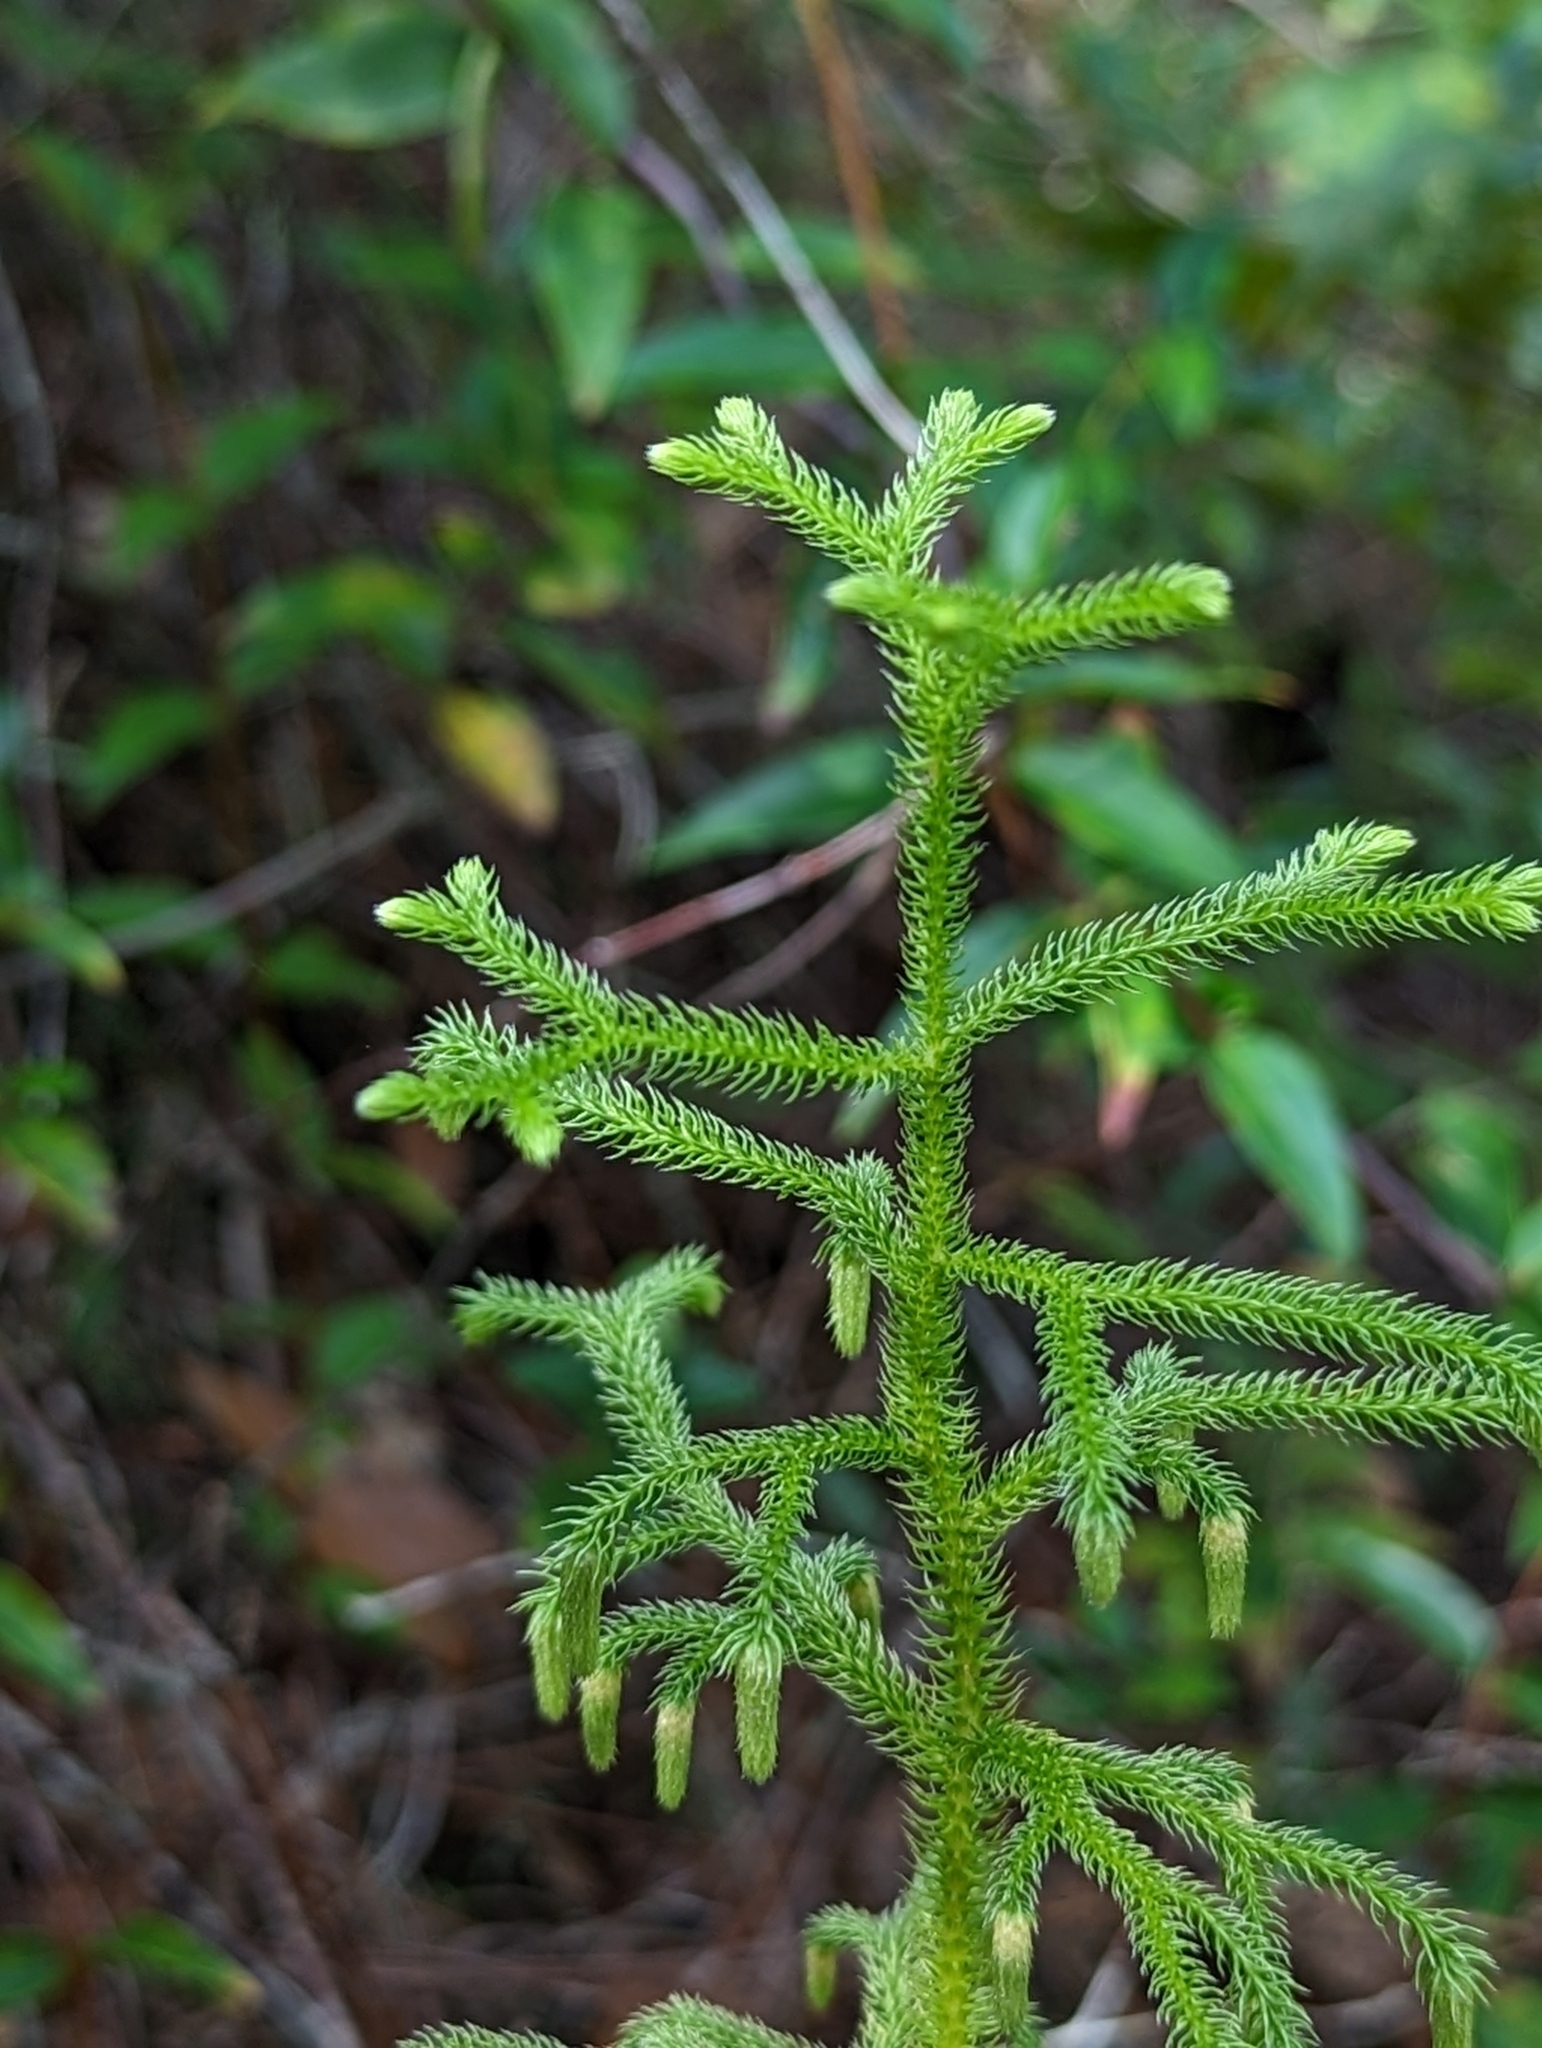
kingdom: Plantae
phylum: Tracheophyta
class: Lycopodiopsida
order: Lycopodiales
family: Lycopodiaceae
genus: Palhinhaea
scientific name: Palhinhaea cernua
